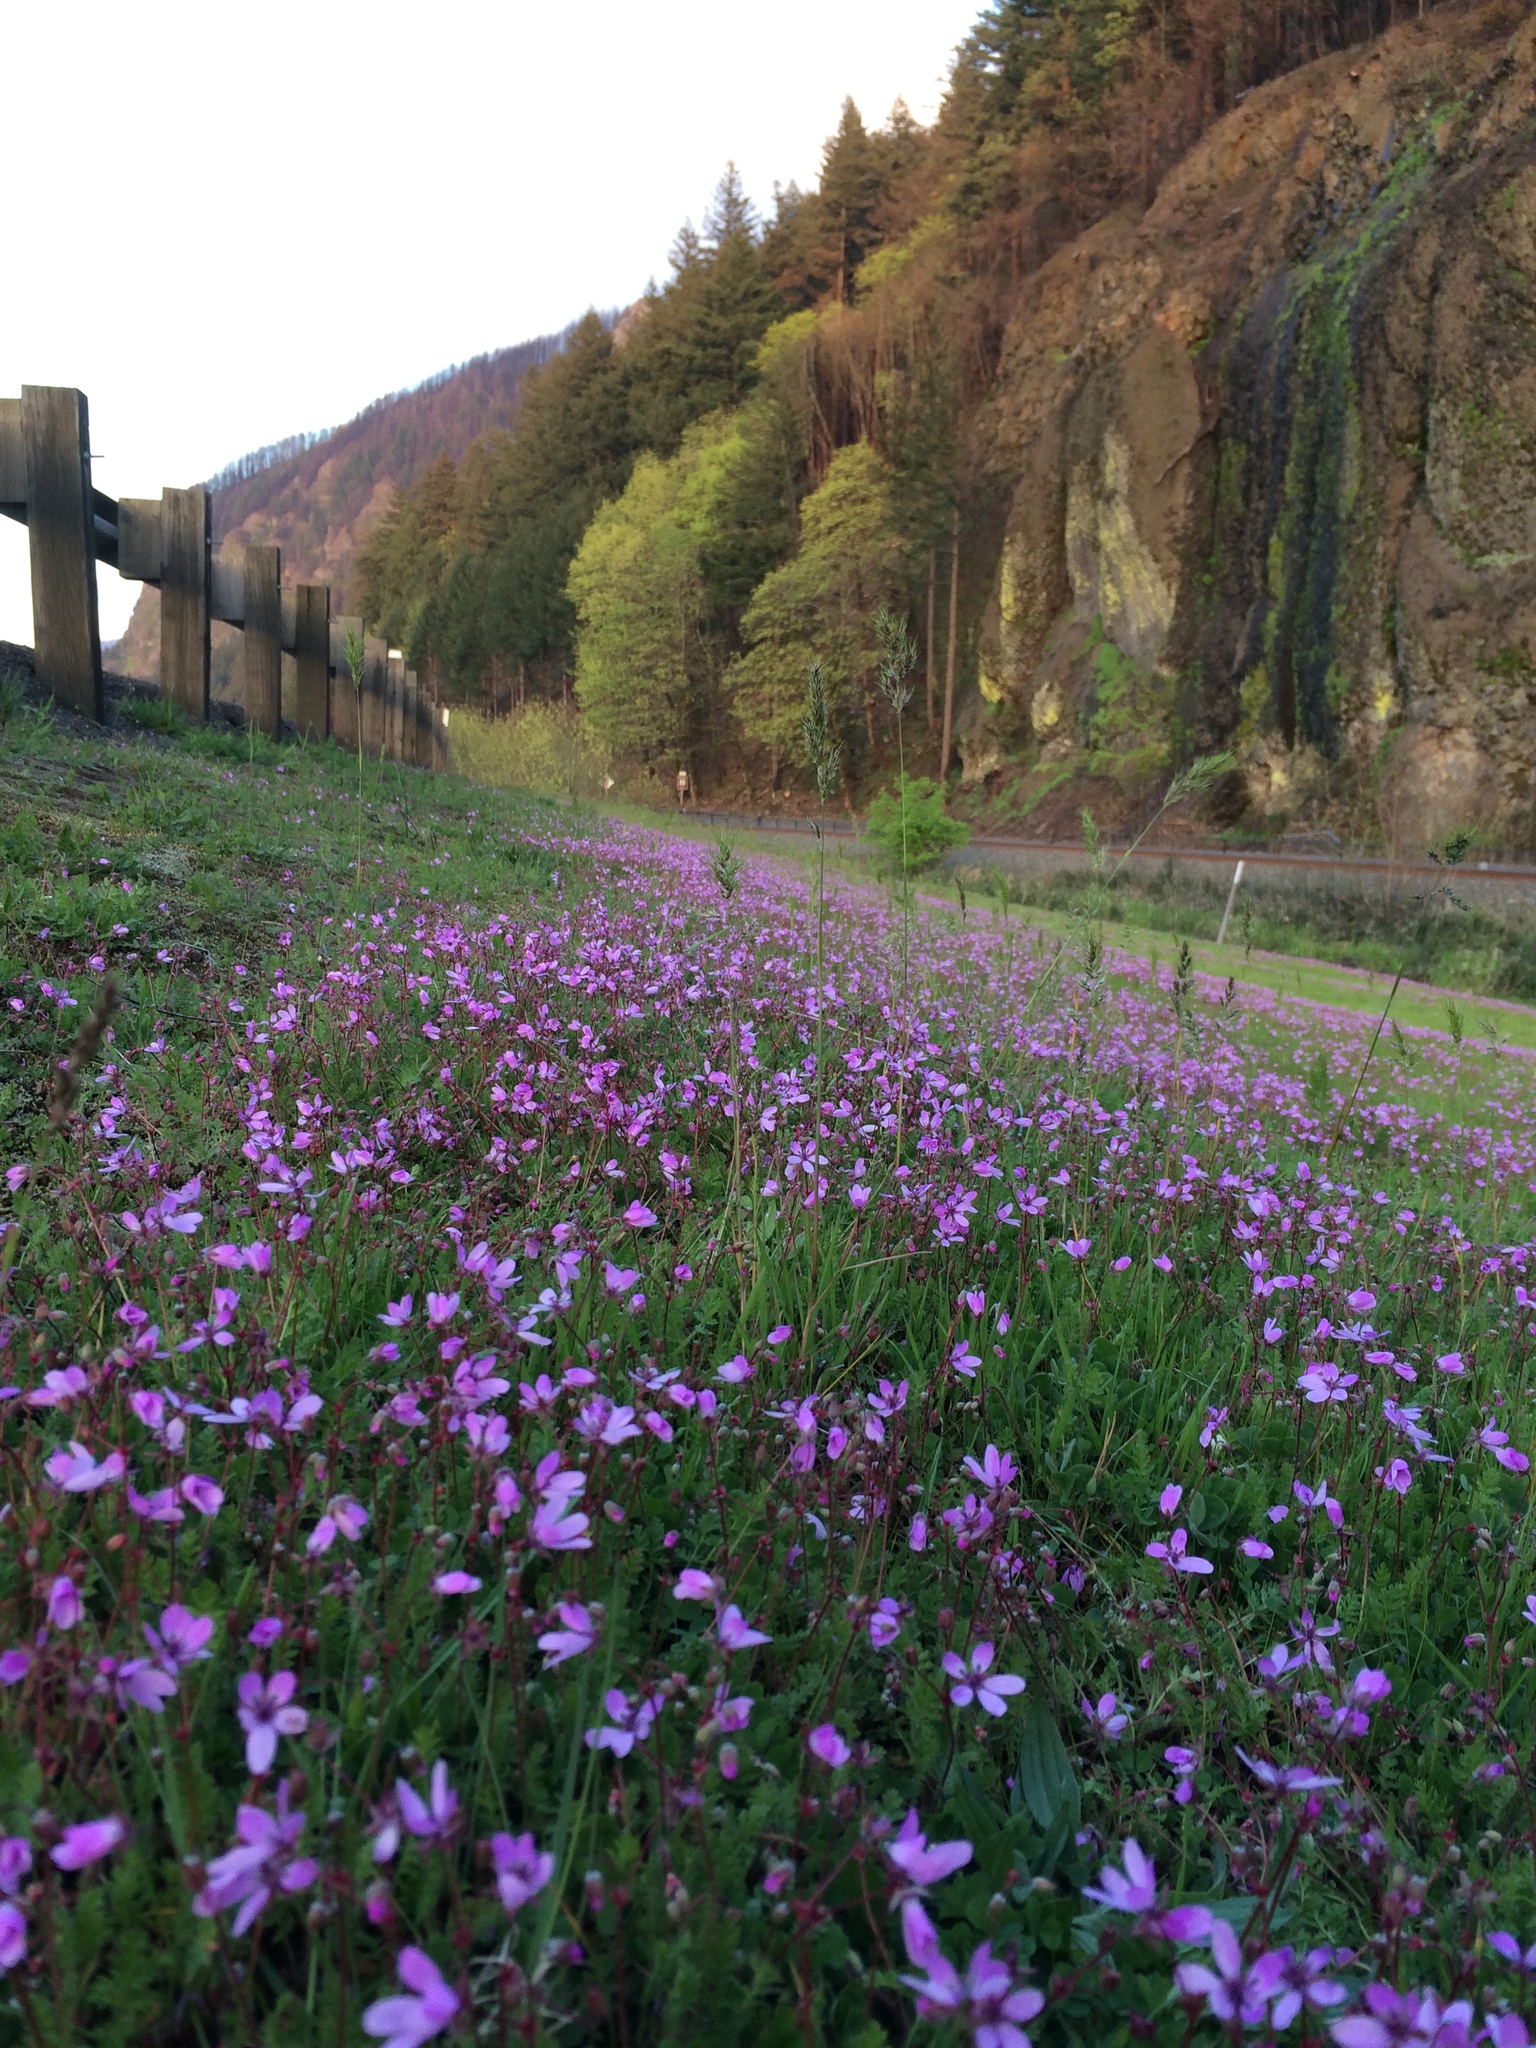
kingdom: Plantae
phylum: Tracheophyta
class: Magnoliopsida
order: Geraniales
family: Geraniaceae
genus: Erodium
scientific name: Erodium cicutarium
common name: Common stork's-bill
